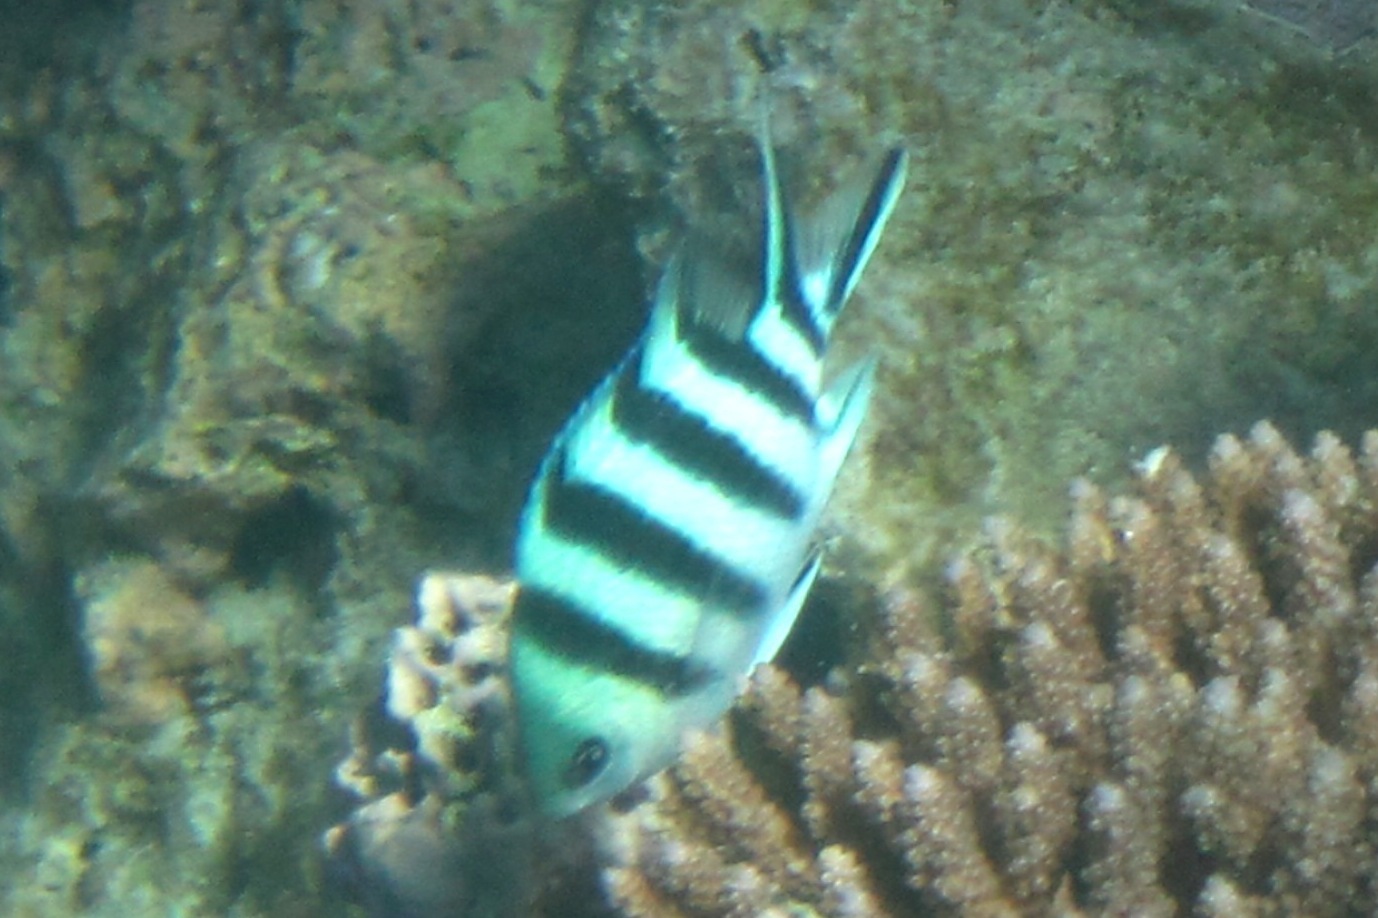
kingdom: Animalia
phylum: Chordata
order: Perciformes
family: Pomacentridae
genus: Abudefduf
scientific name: Abudefduf sexfasciatus
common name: Scissortail sergeant
